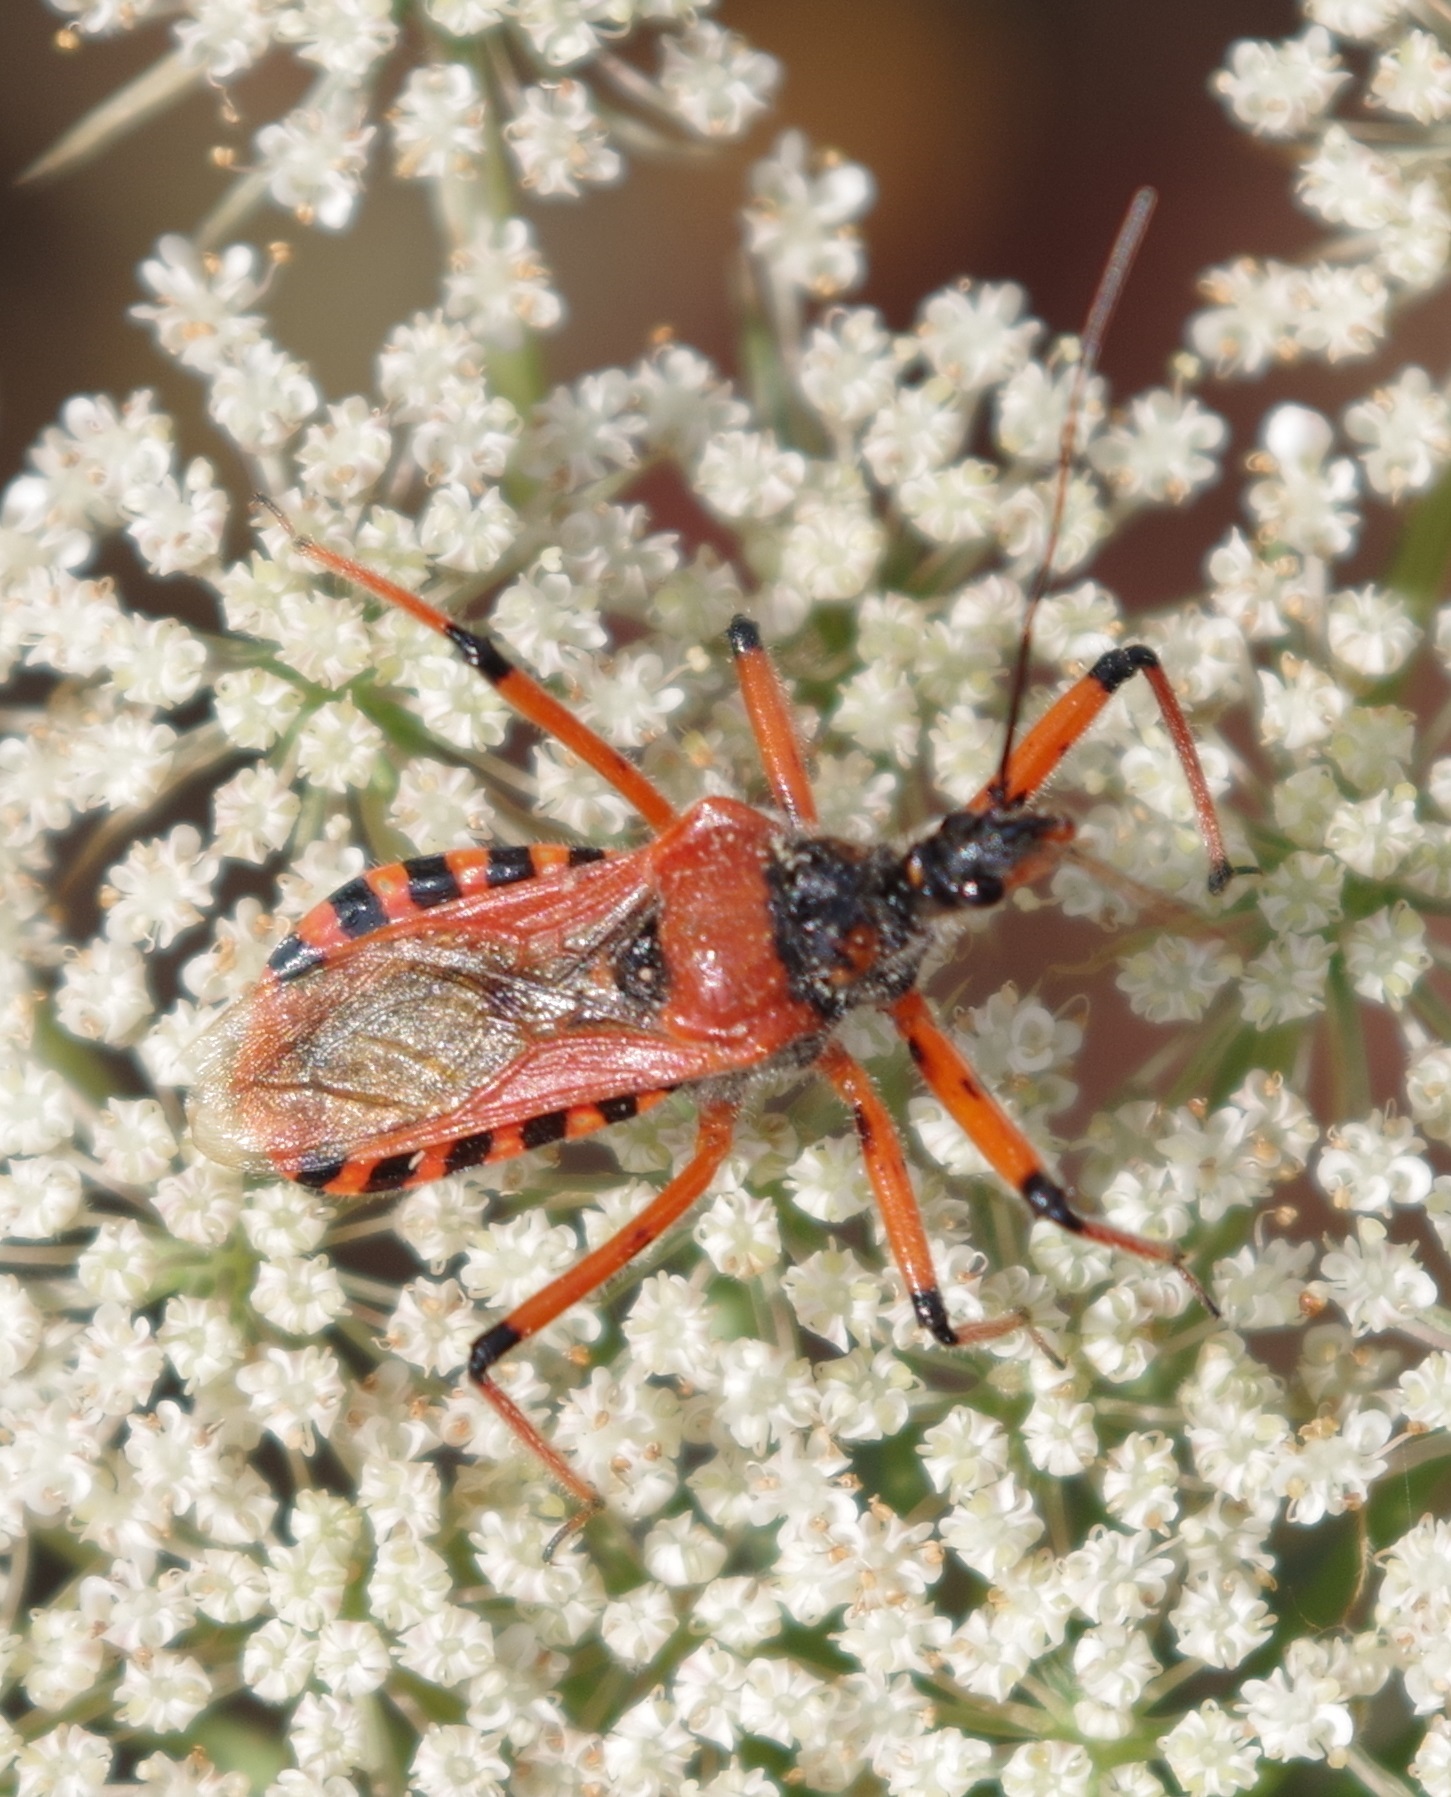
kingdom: Animalia
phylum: Arthropoda
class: Insecta
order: Hemiptera
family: Reduviidae
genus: Rhynocoris
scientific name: Rhynocoris iracundus
